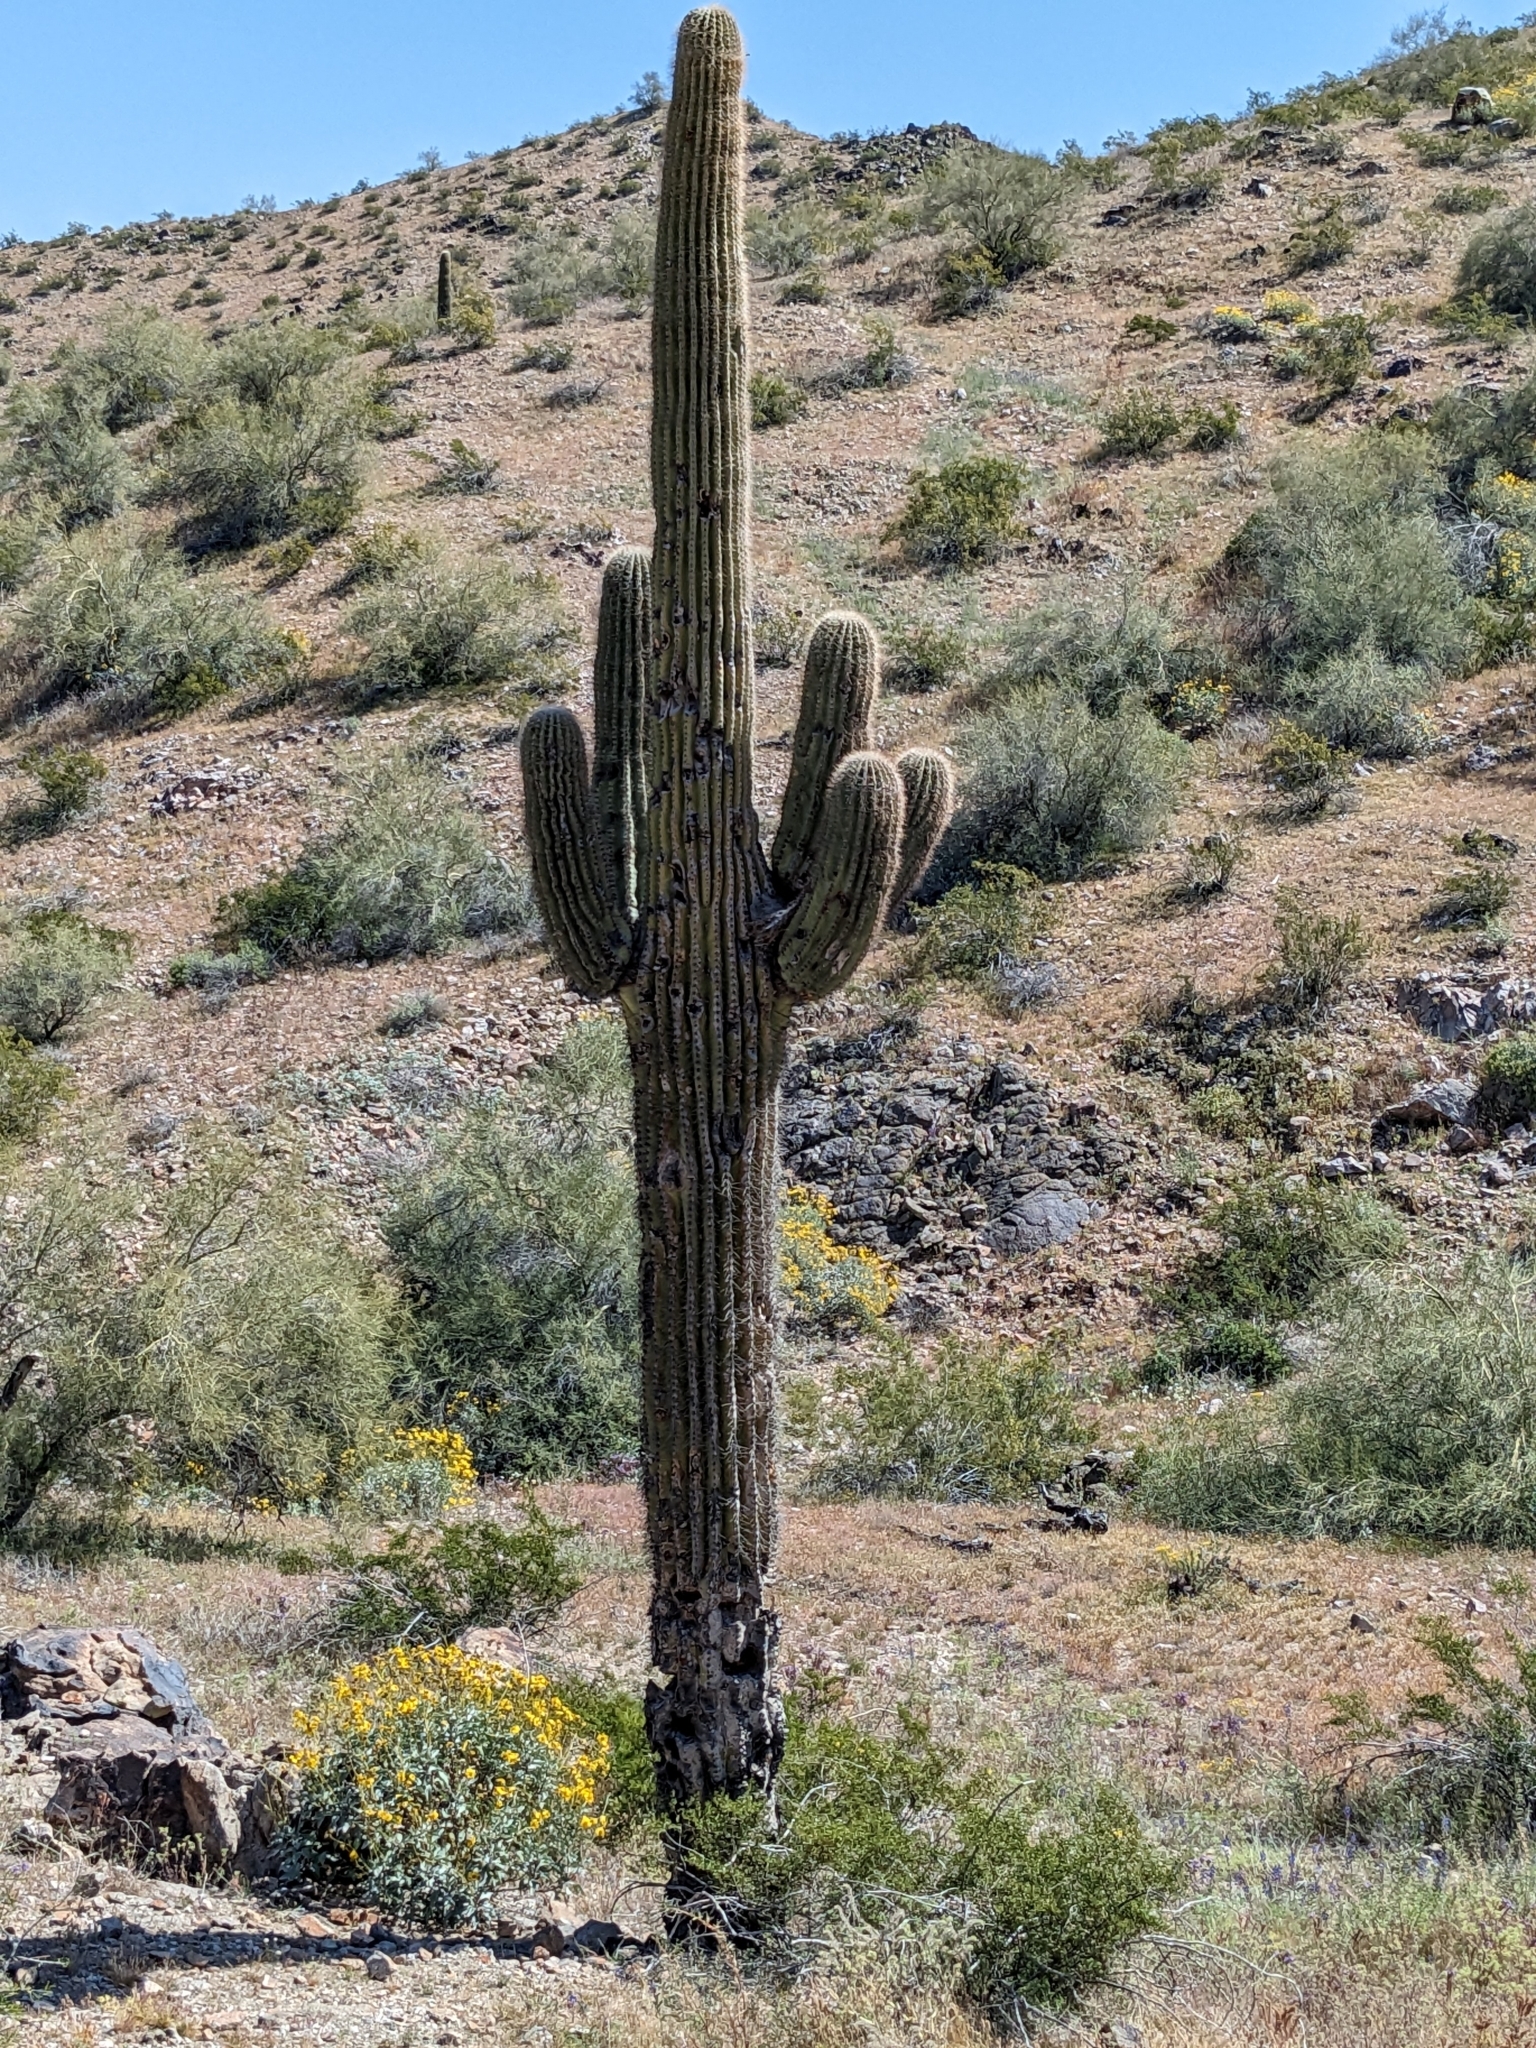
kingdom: Plantae
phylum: Tracheophyta
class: Magnoliopsida
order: Caryophyllales
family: Cactaceae
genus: Carnegiea
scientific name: Carnegiea gigantea
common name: Saguaro
